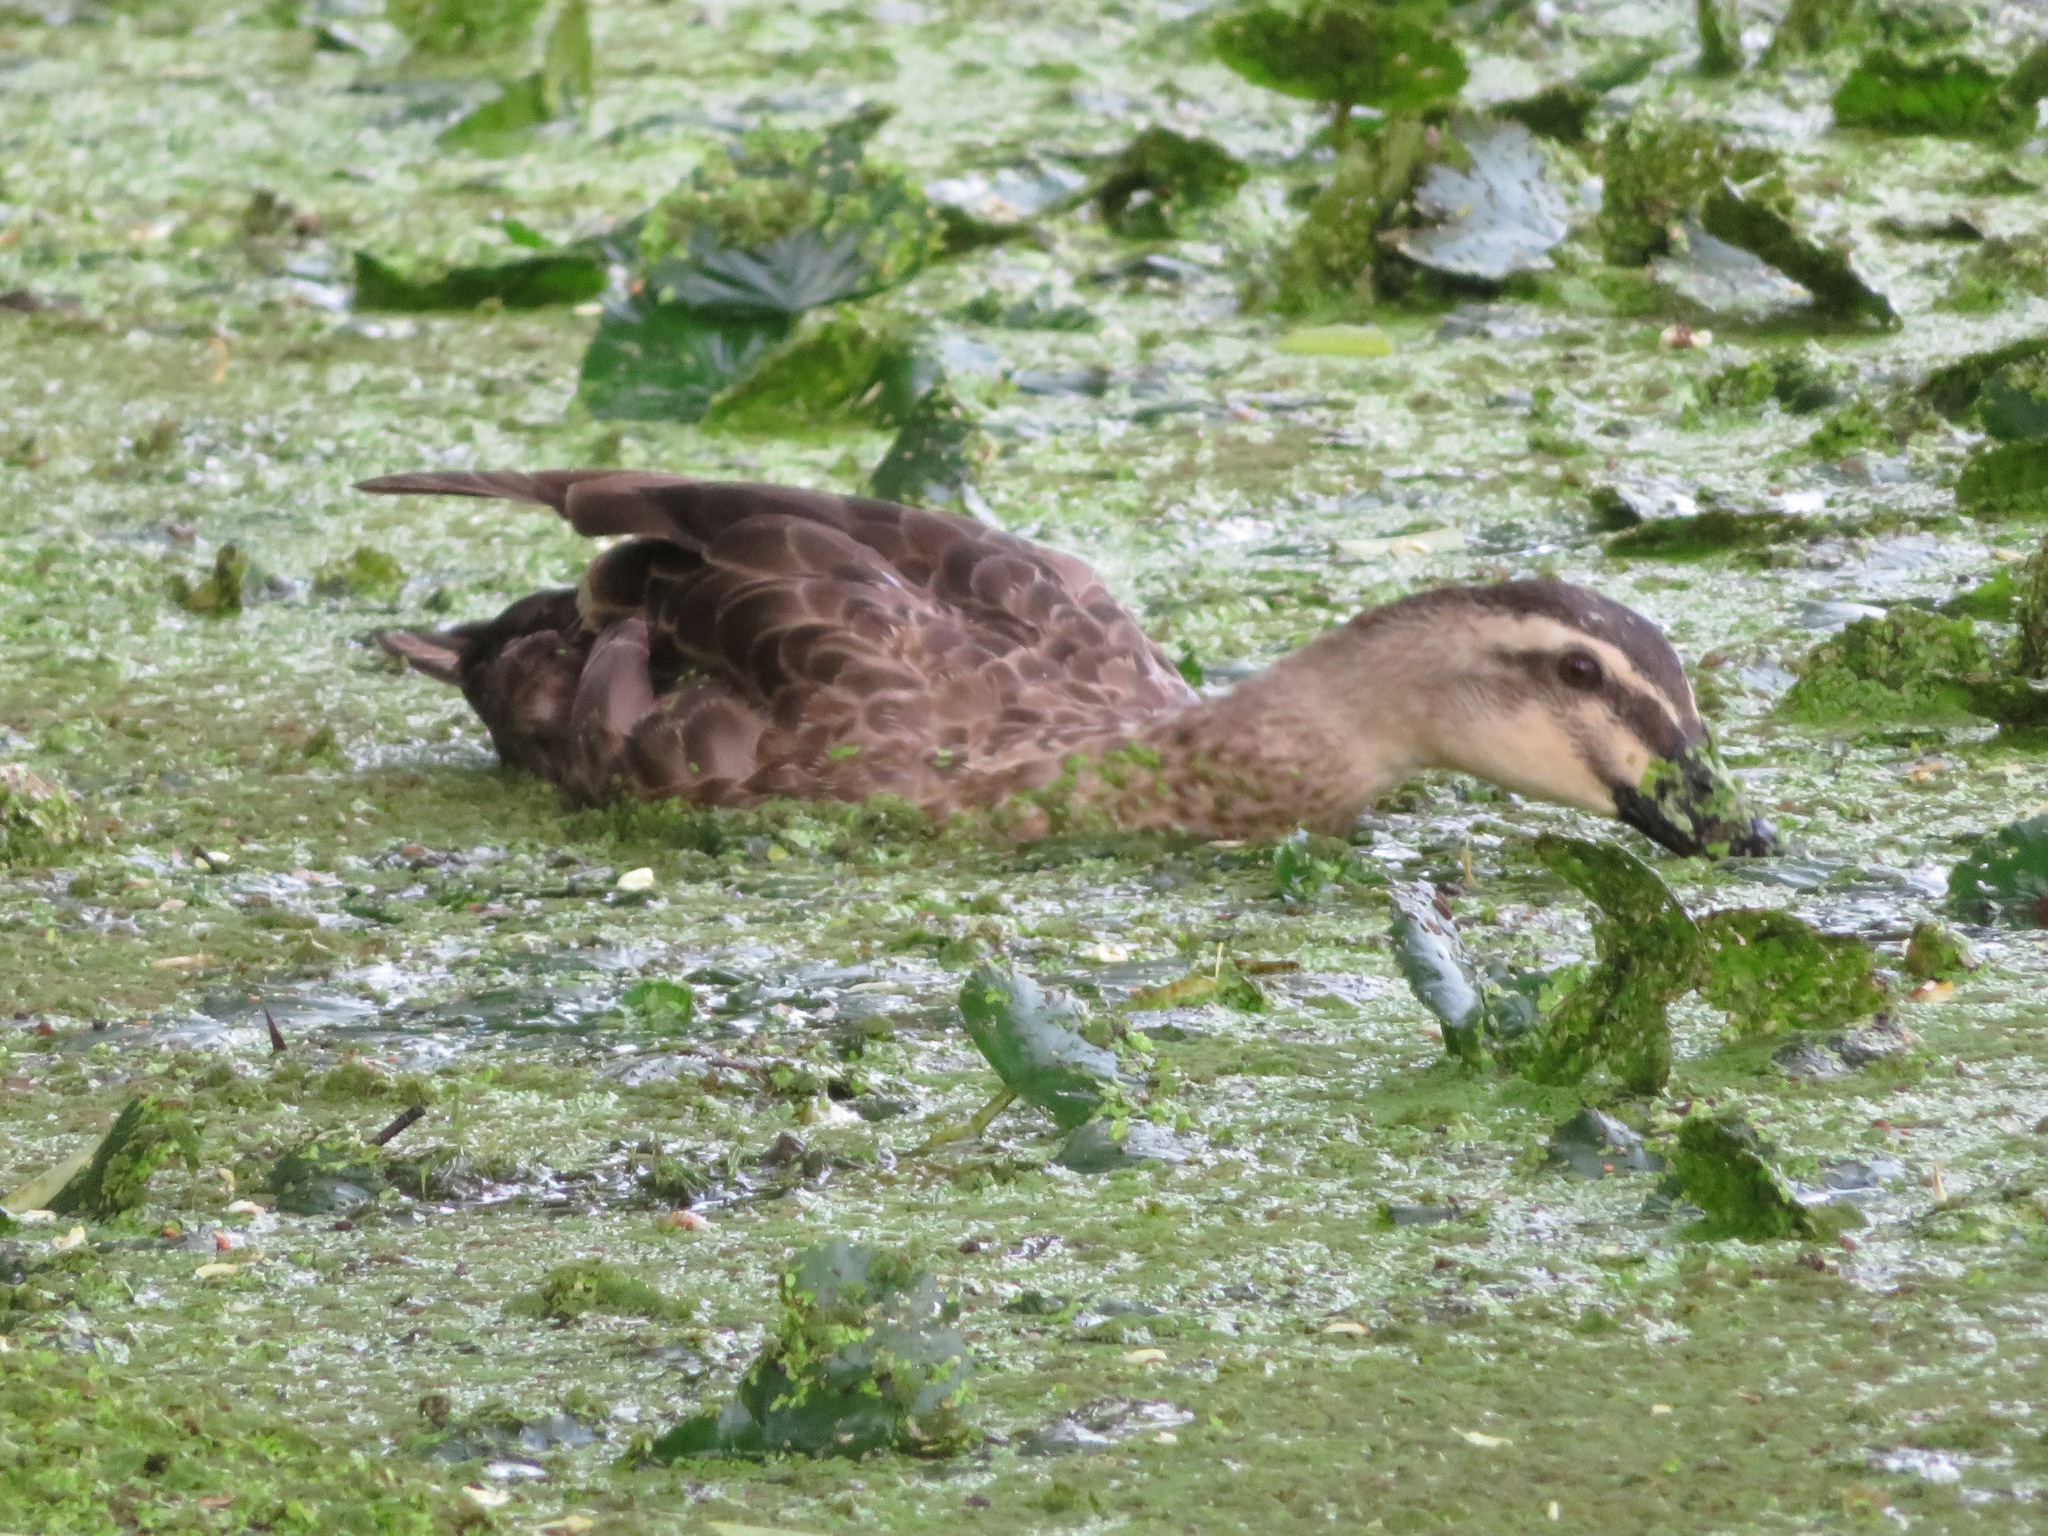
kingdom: Animalia
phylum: Chordata
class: Aves
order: Anseriformes
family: Anatidae
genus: Anas
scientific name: Anas zonorhyncha
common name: Eastern spot-billed duck
